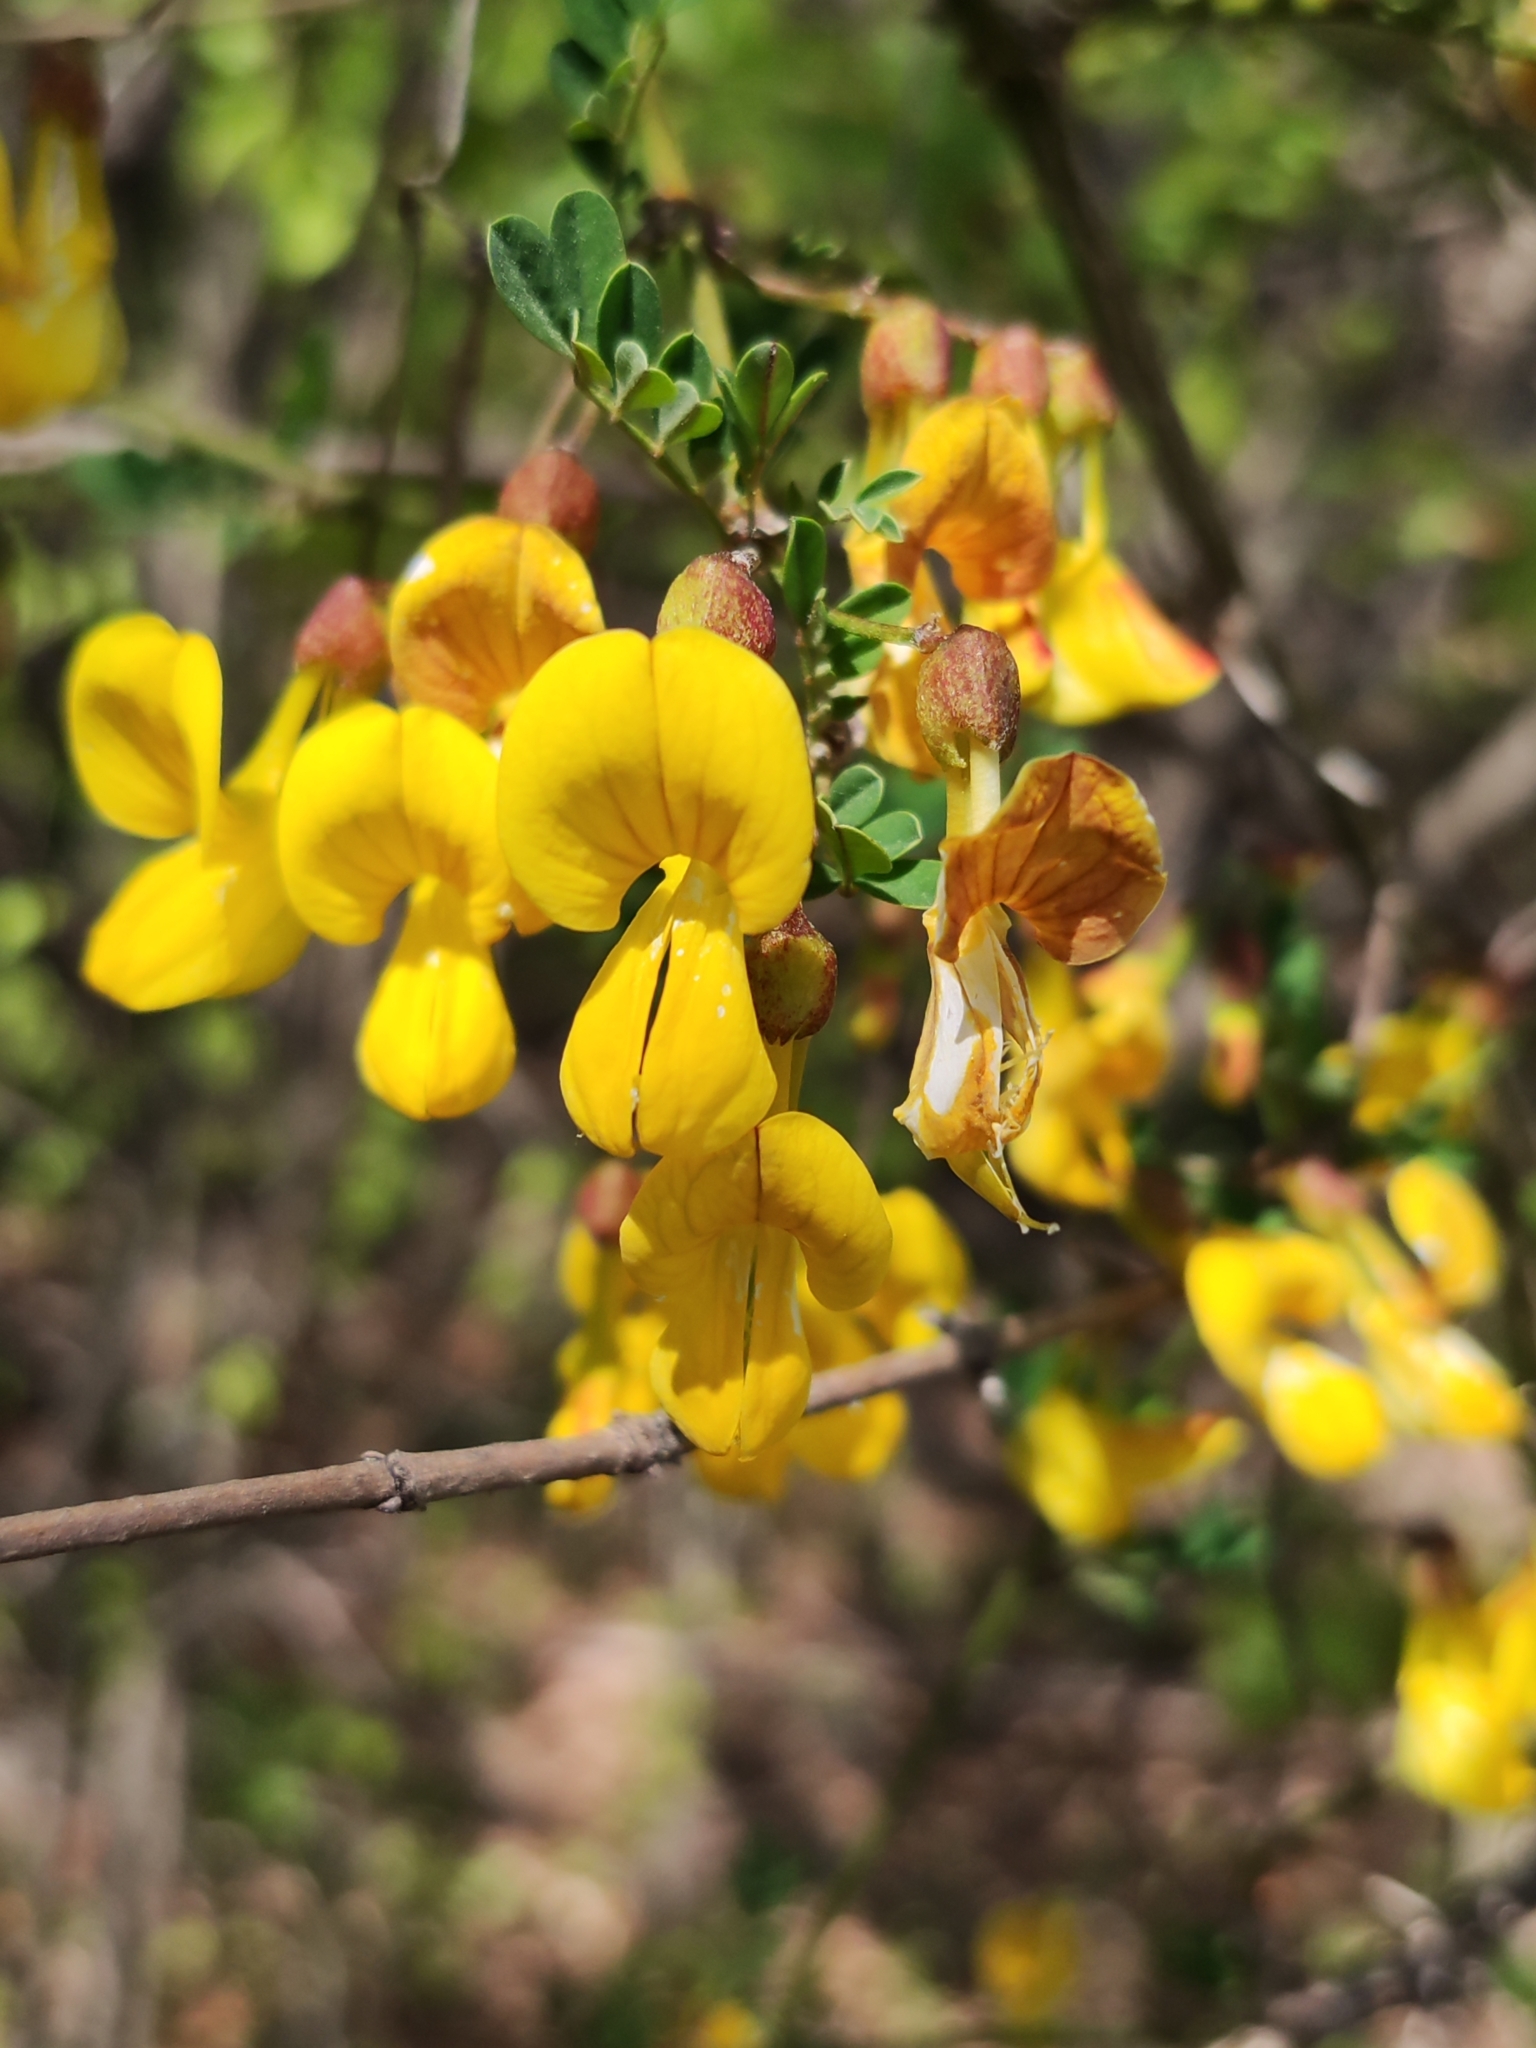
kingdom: Plantae
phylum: Tracheophyta
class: Magnoliopsida
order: Fabales
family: Fabaceae
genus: Hippocrepis
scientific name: Hippocrepis emerus
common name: Scorpion senna
